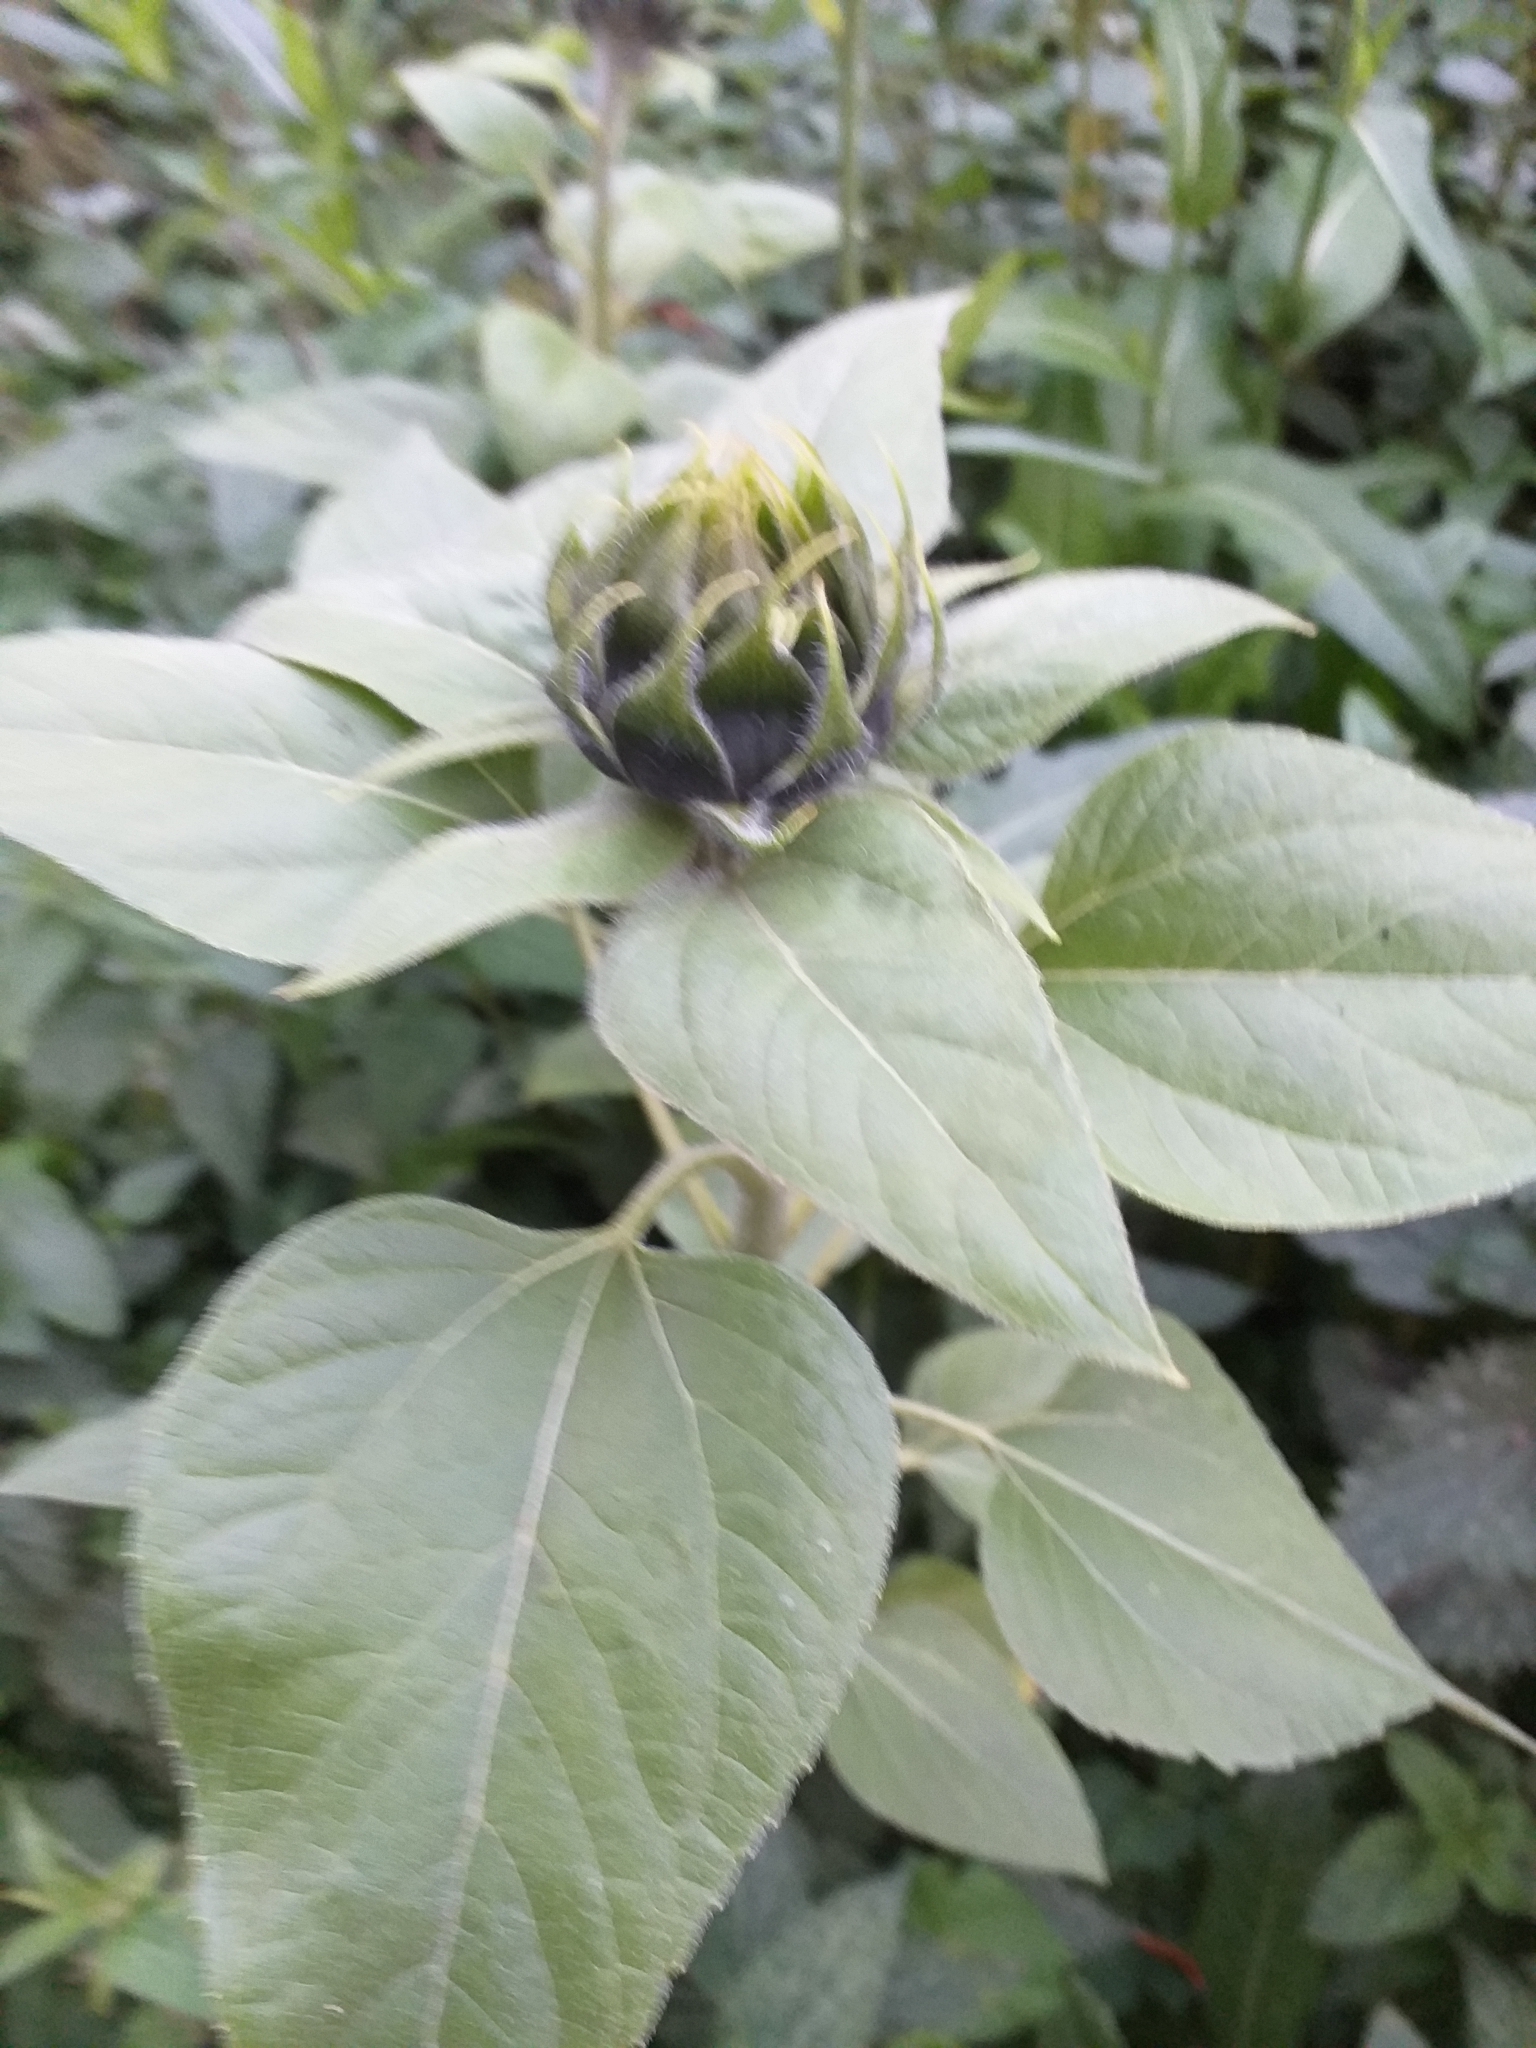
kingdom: Plantae
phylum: Tracheophyta
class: Magnoliopsida
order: Asterales
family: Asteraceae
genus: Helianthus
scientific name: Helianthus annuus
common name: Sunflower
